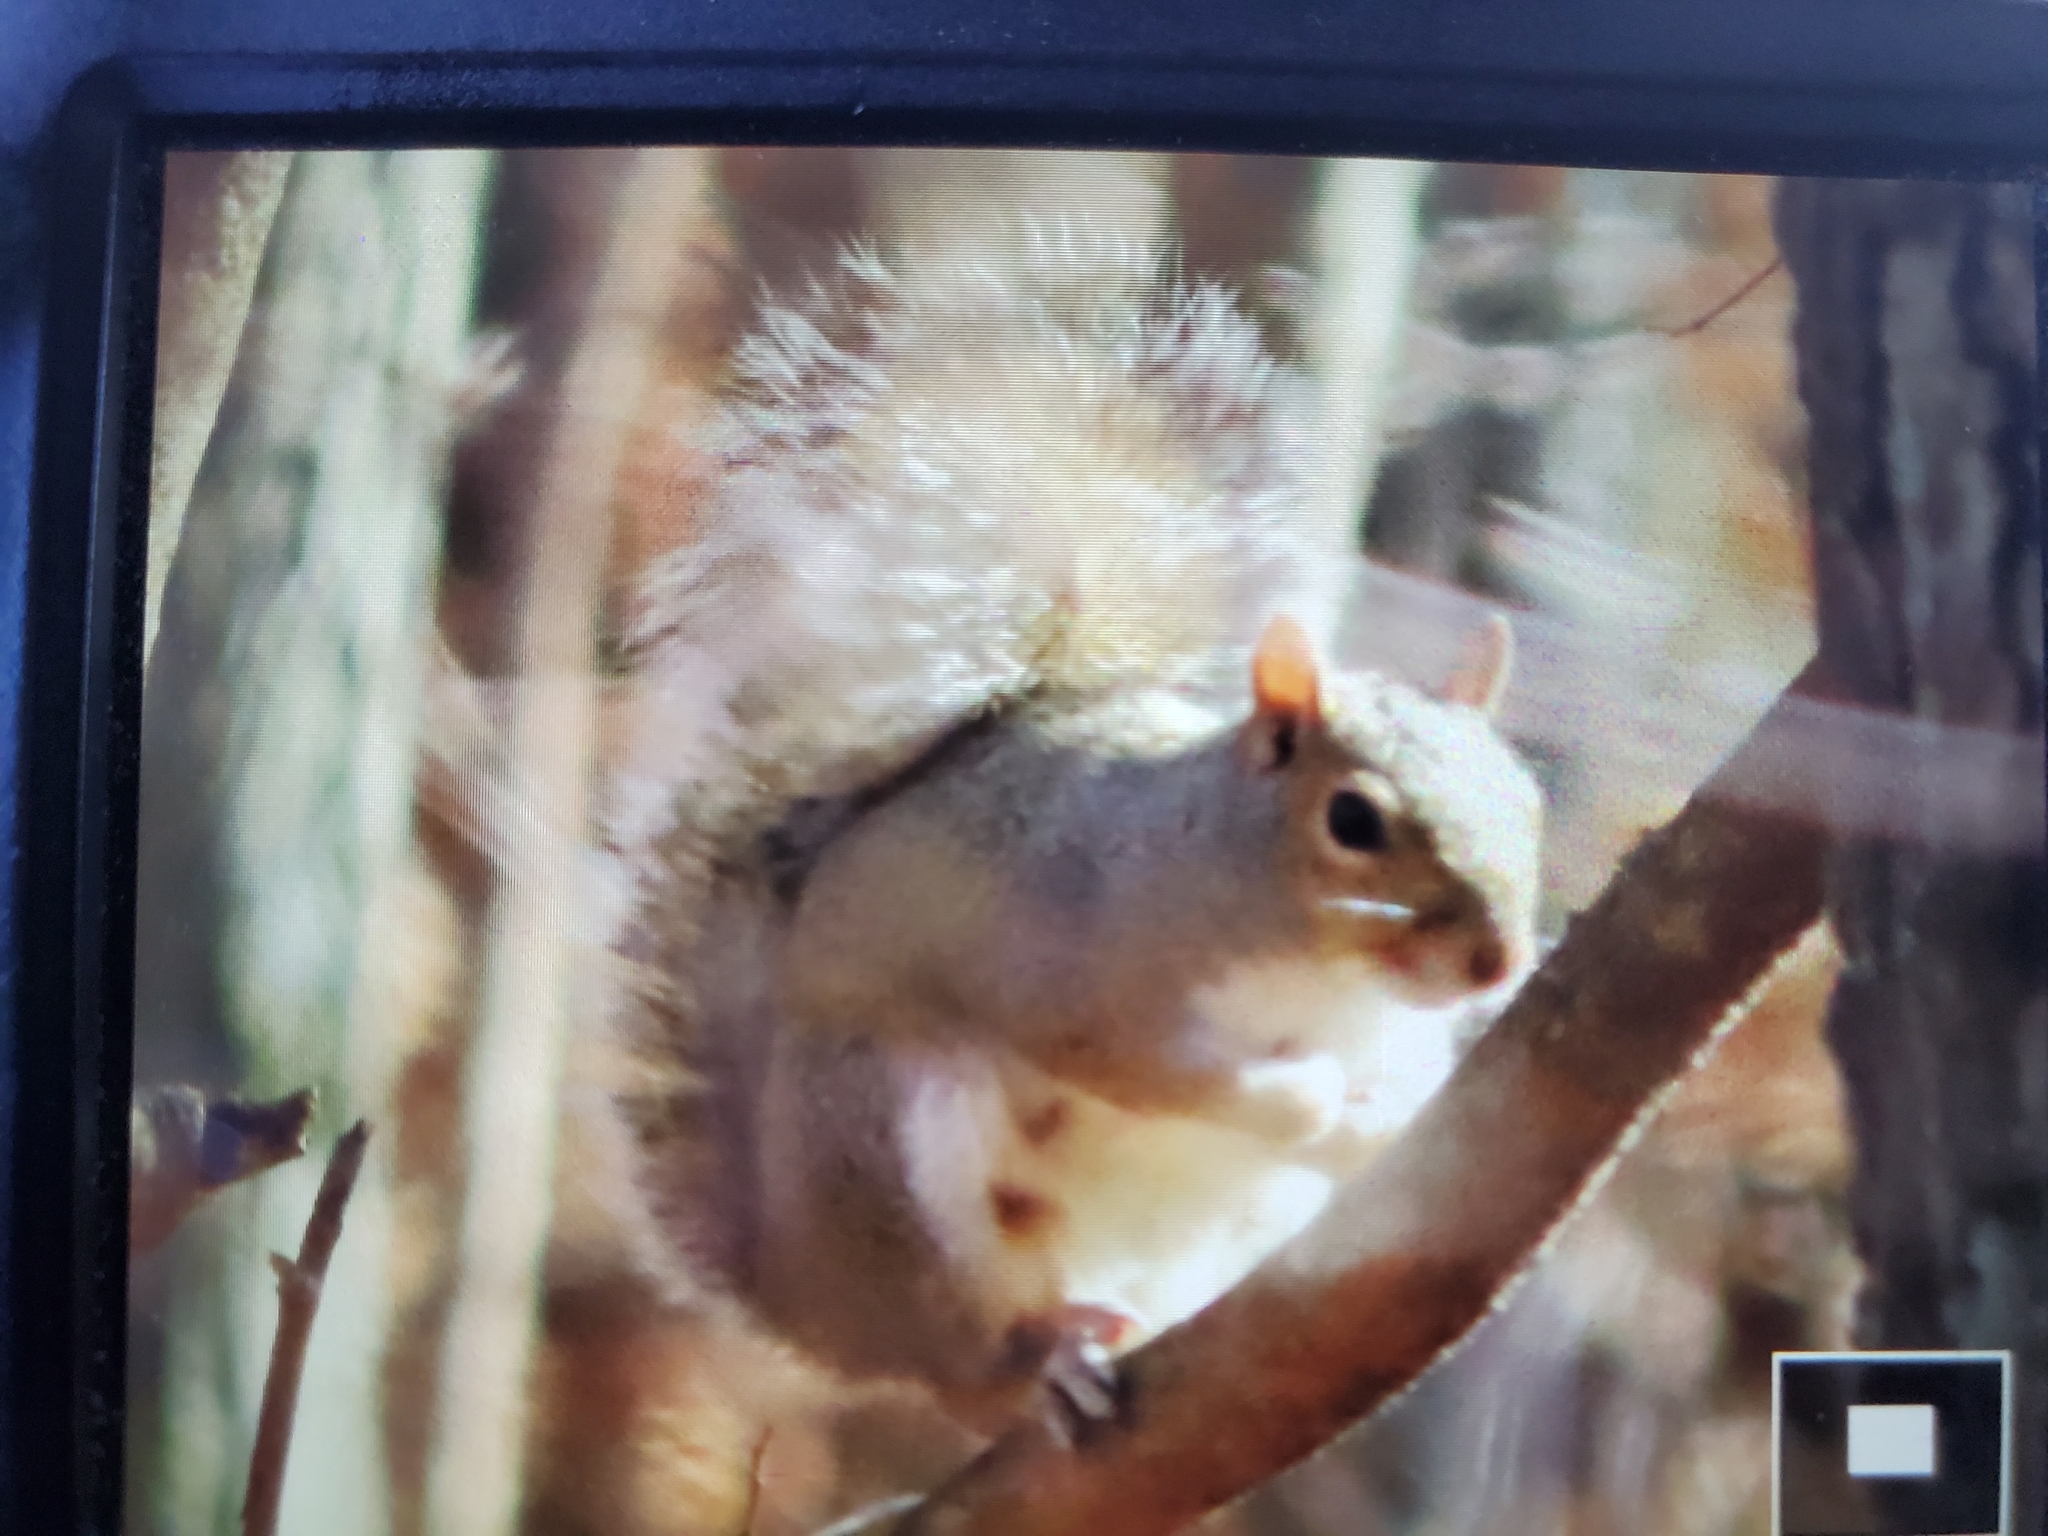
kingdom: Animalia
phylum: Chordata
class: Mammalia
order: Rodentia
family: Sciuridae
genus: Sciurus
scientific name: Sciurus carolinensis
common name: Eastern gray squirrel
